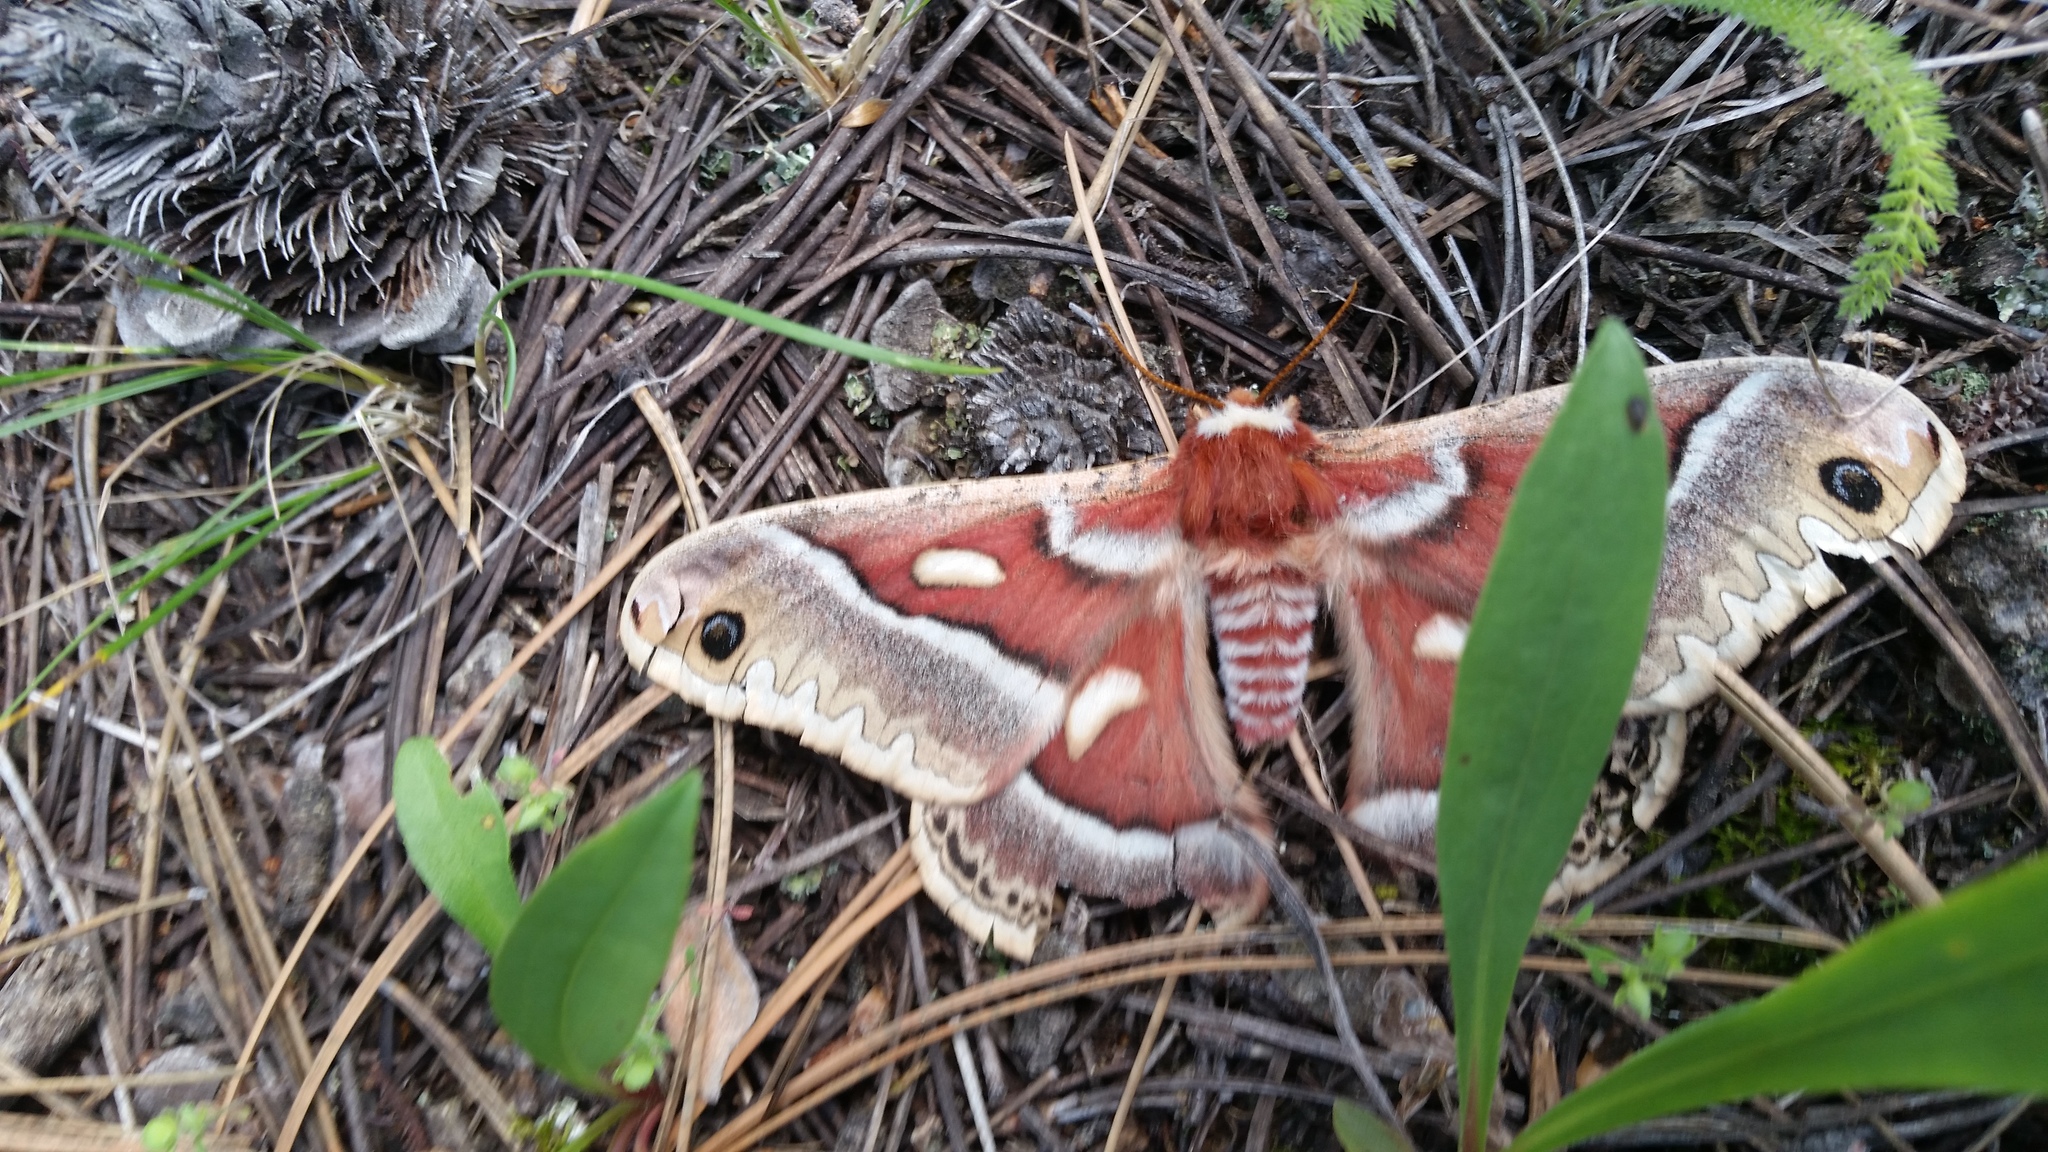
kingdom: Animalia
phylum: Arthropoda
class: Insecta
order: Lepidoptera
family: Saturniidae
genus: Hyalophora
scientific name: Hyalophora gloveri
